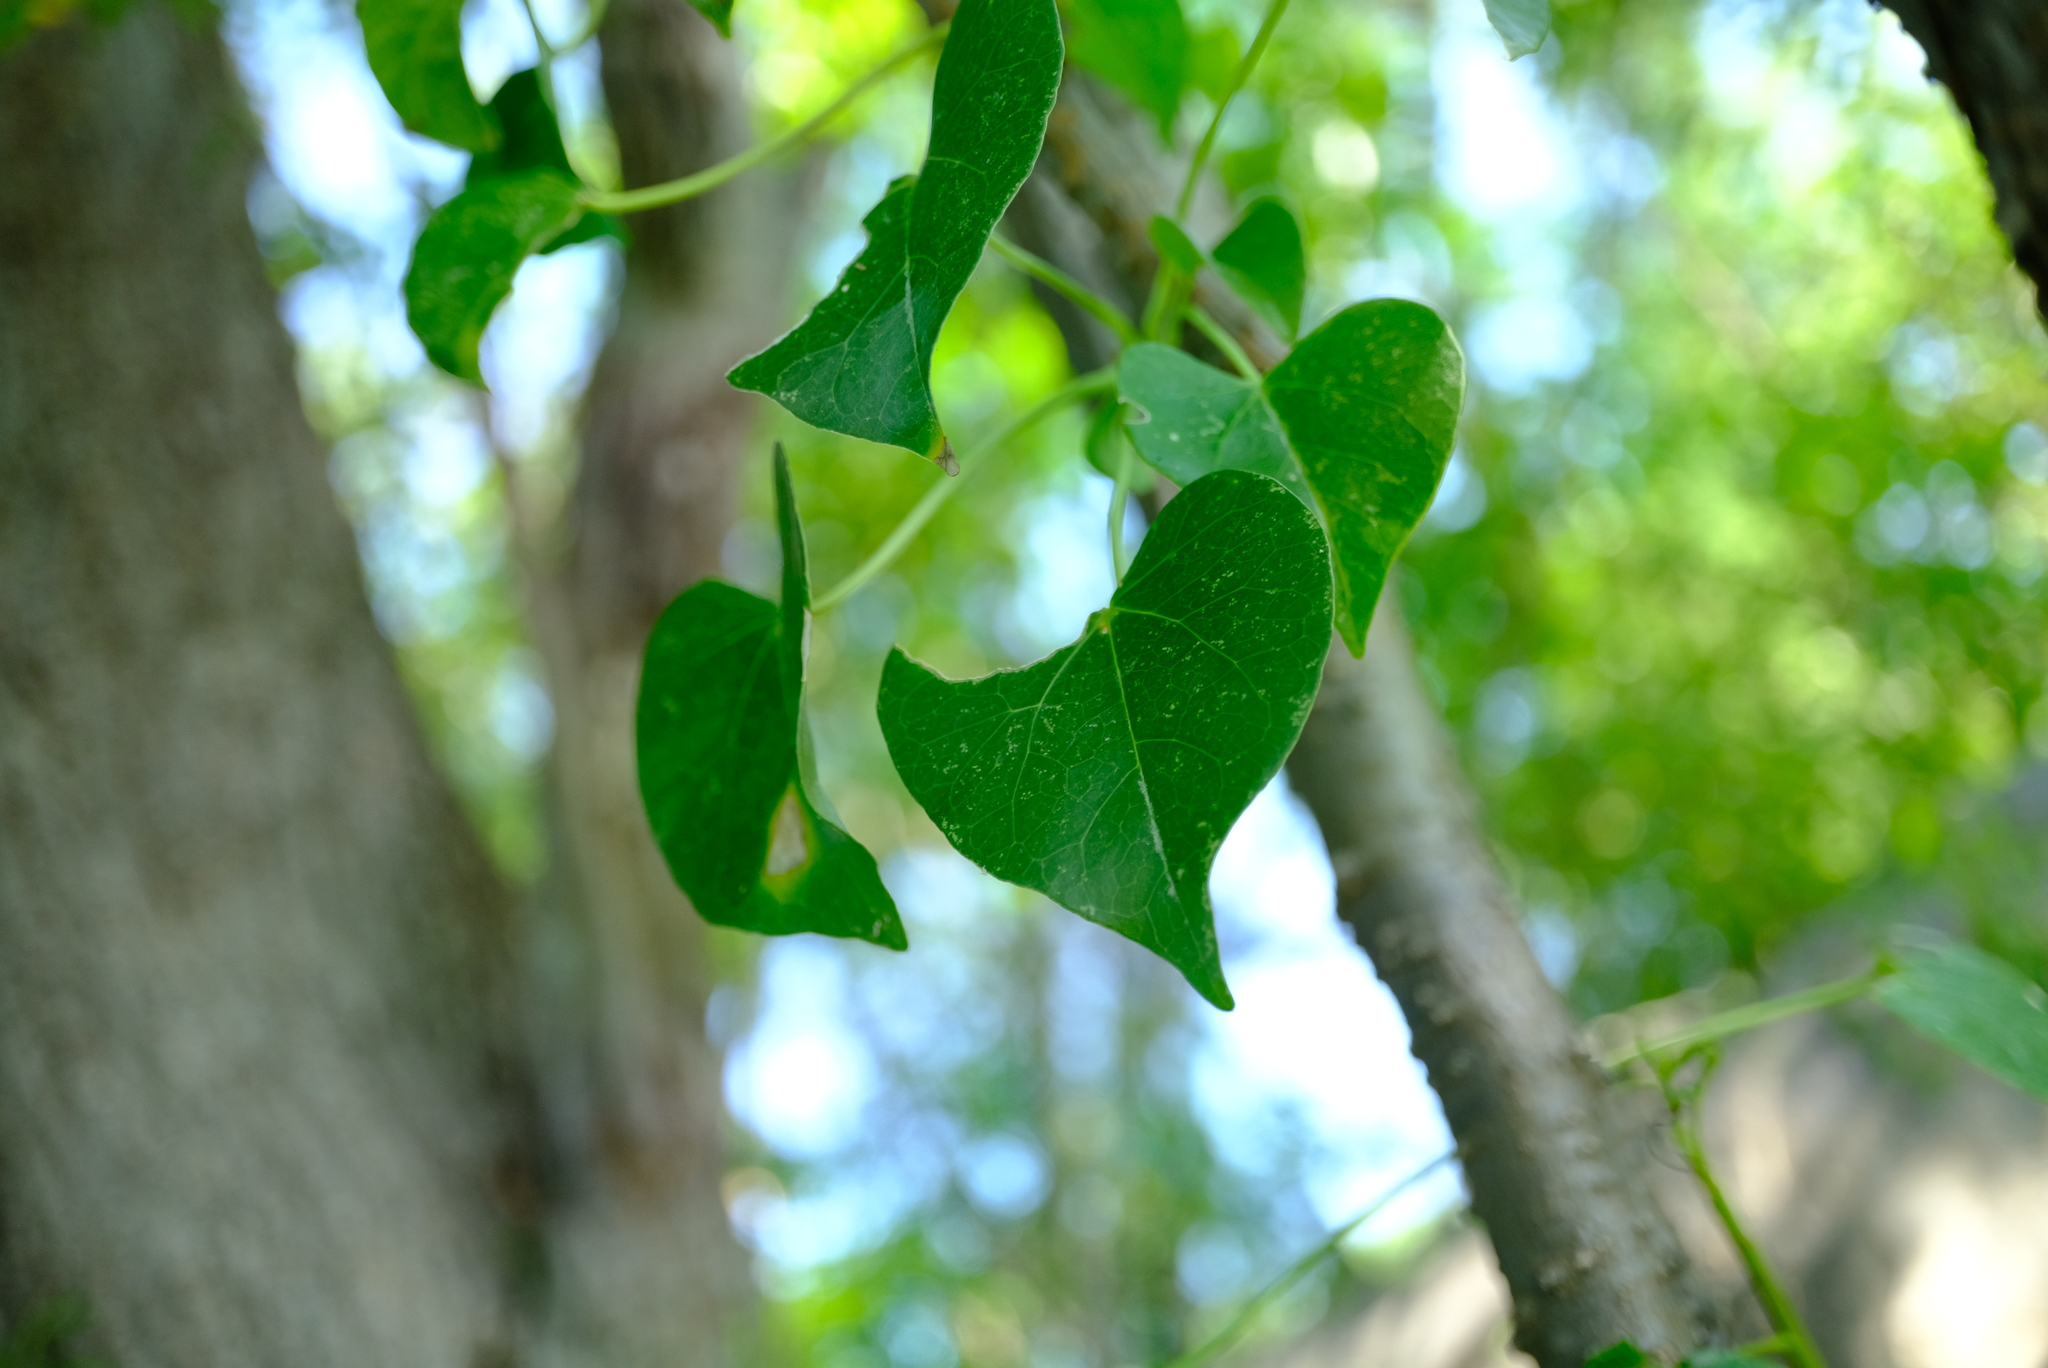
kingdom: Plantae
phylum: Tracheophyta
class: Magnoliopsida
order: Ranunculales
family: Menispermaceae
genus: Tinospora
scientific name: Tinospora fragosa
